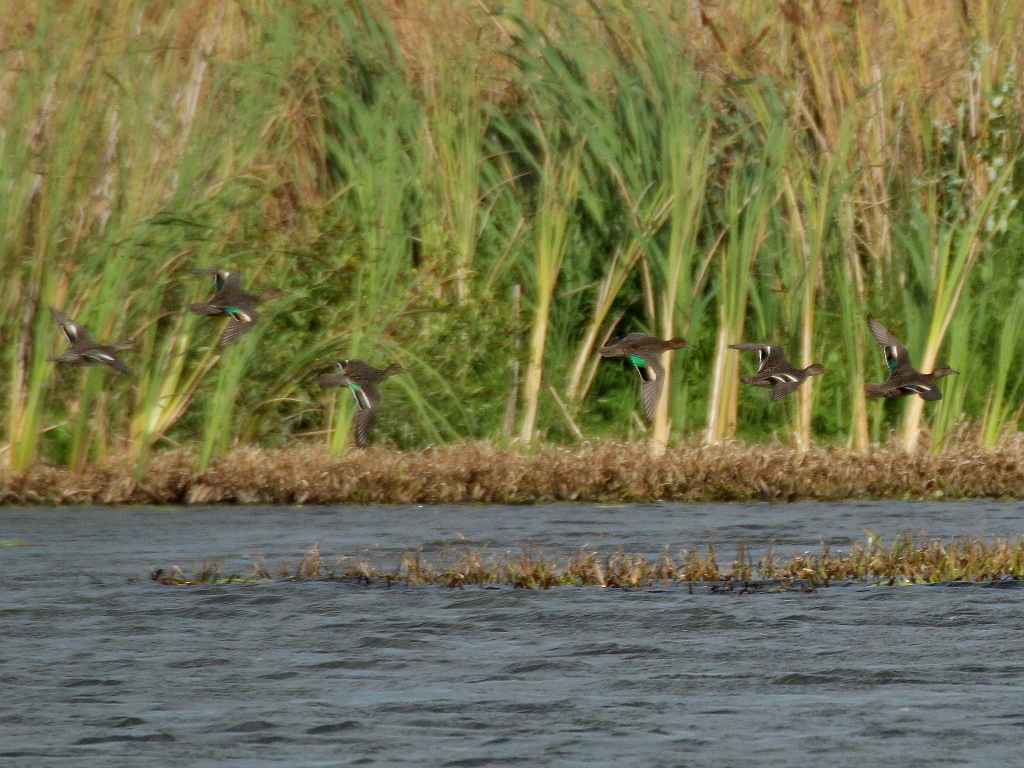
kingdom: Animalia
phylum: Chordata
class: Aves
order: Anseriformes
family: Anatidae
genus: Anas
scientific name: Anas crecca
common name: Eurasian teal
